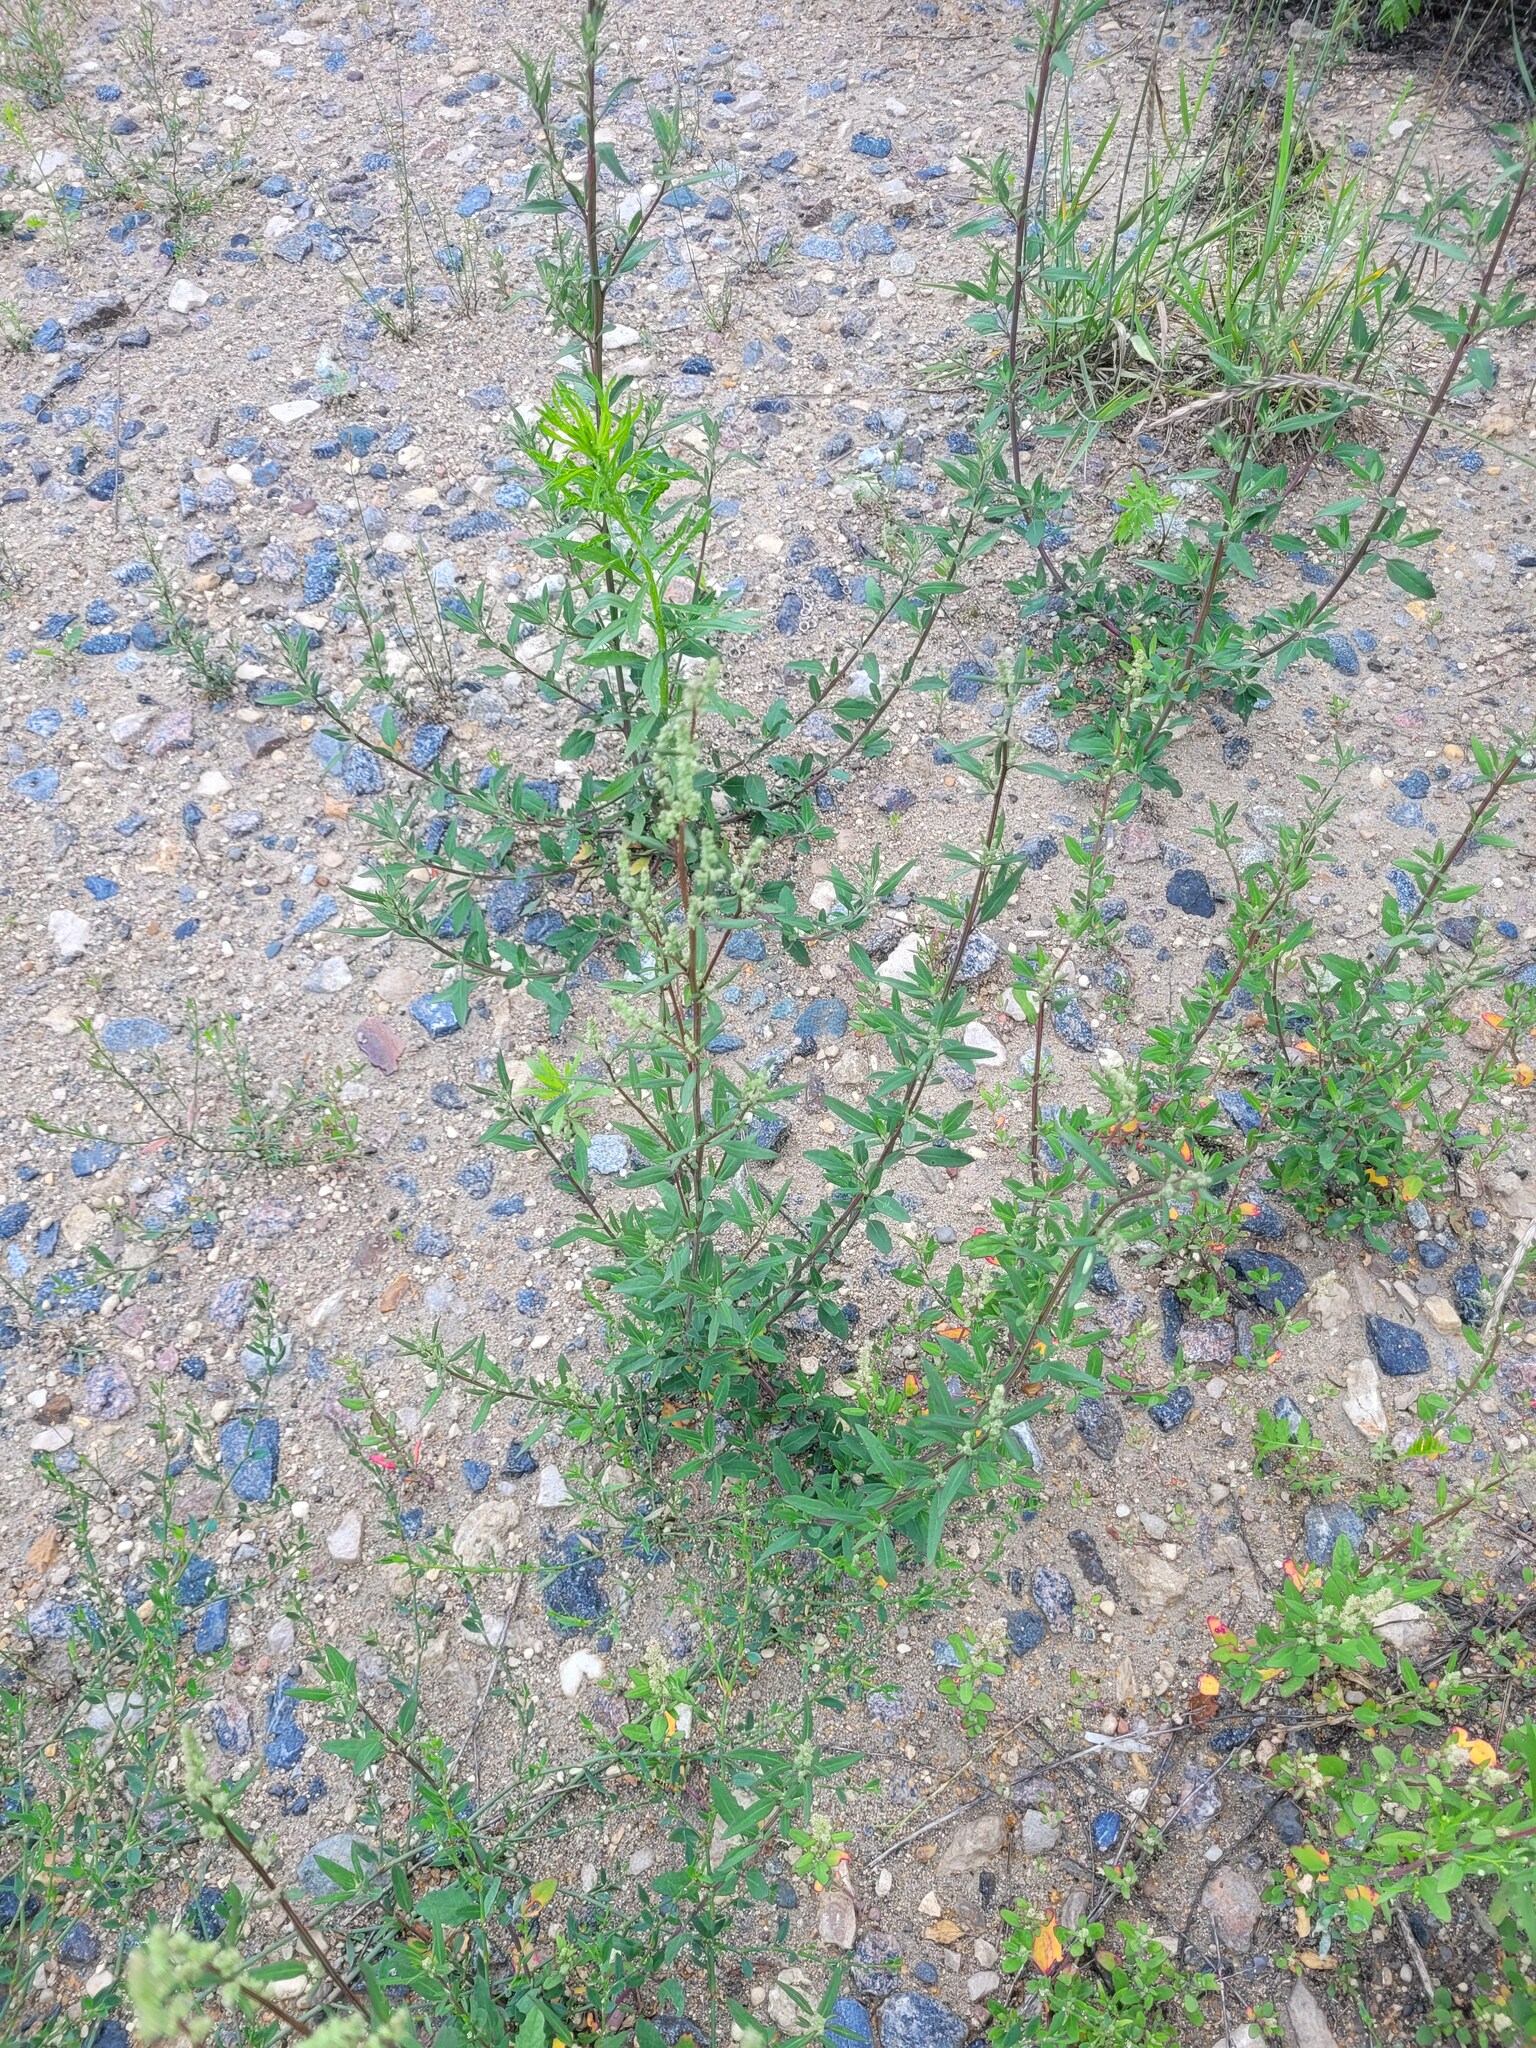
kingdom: Plantae
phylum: Tracheophyta
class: Magnoliopsida
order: Caryophyllales
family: Amaranthaceae
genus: Chenopodium
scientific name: Chenopodium betaceum
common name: Striped goosefoot
